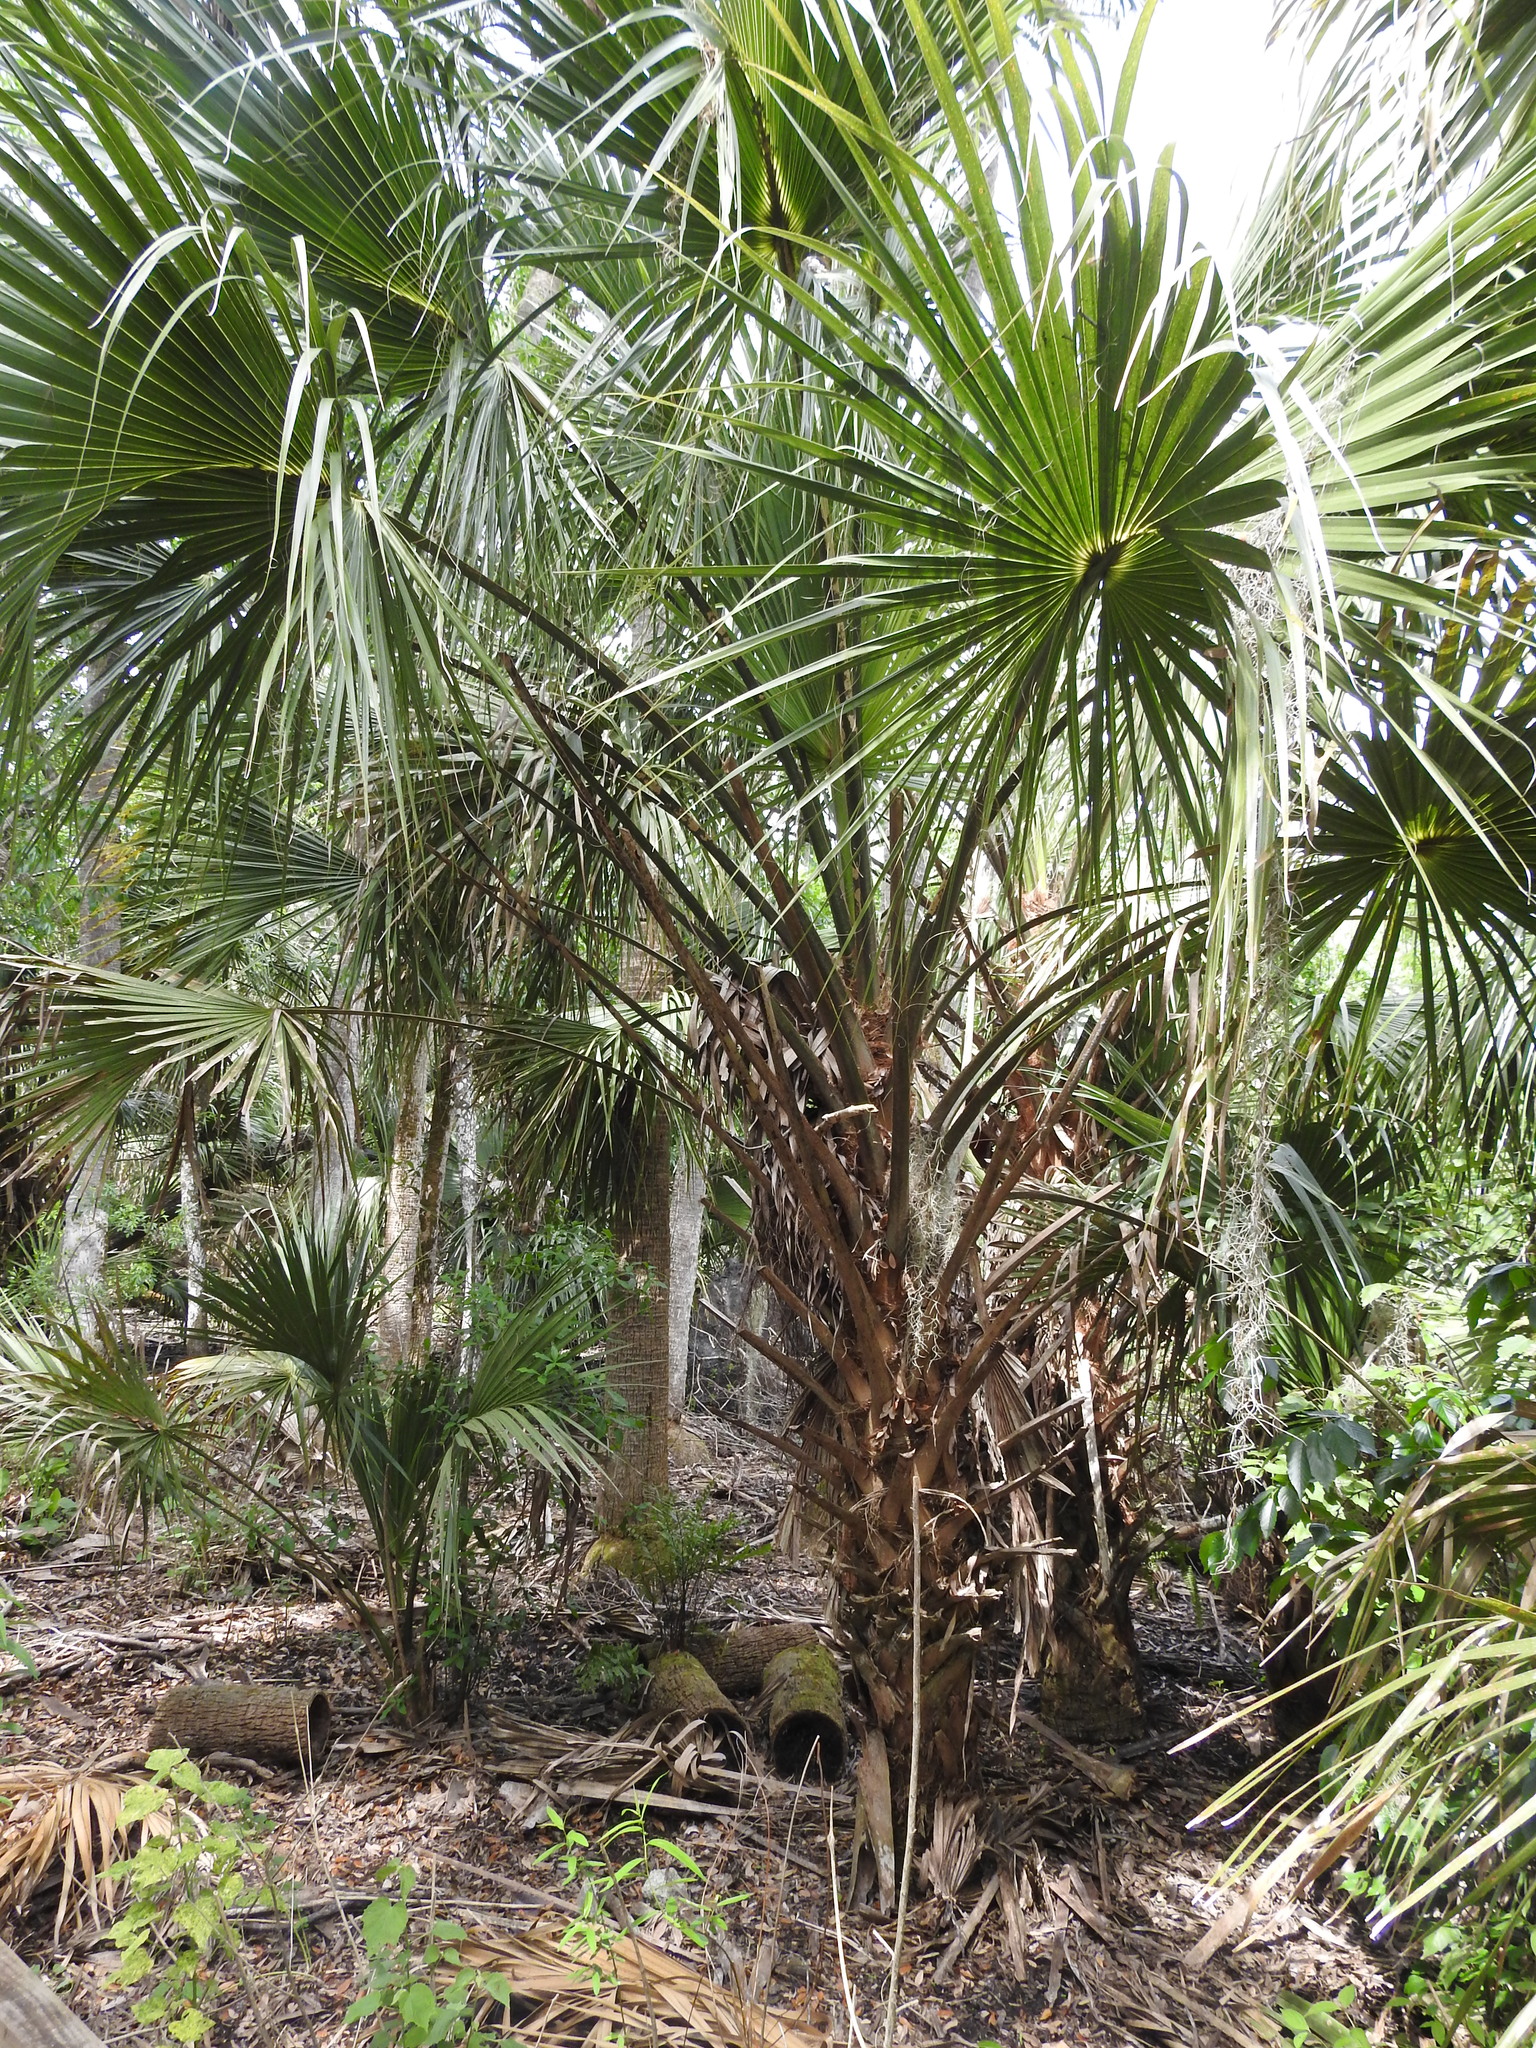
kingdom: Plantae
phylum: Tracheophyta
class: Liliopsida
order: Arecales
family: Arecaceae
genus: Sabal
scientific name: Sabal palmetto
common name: Blue palmetto
